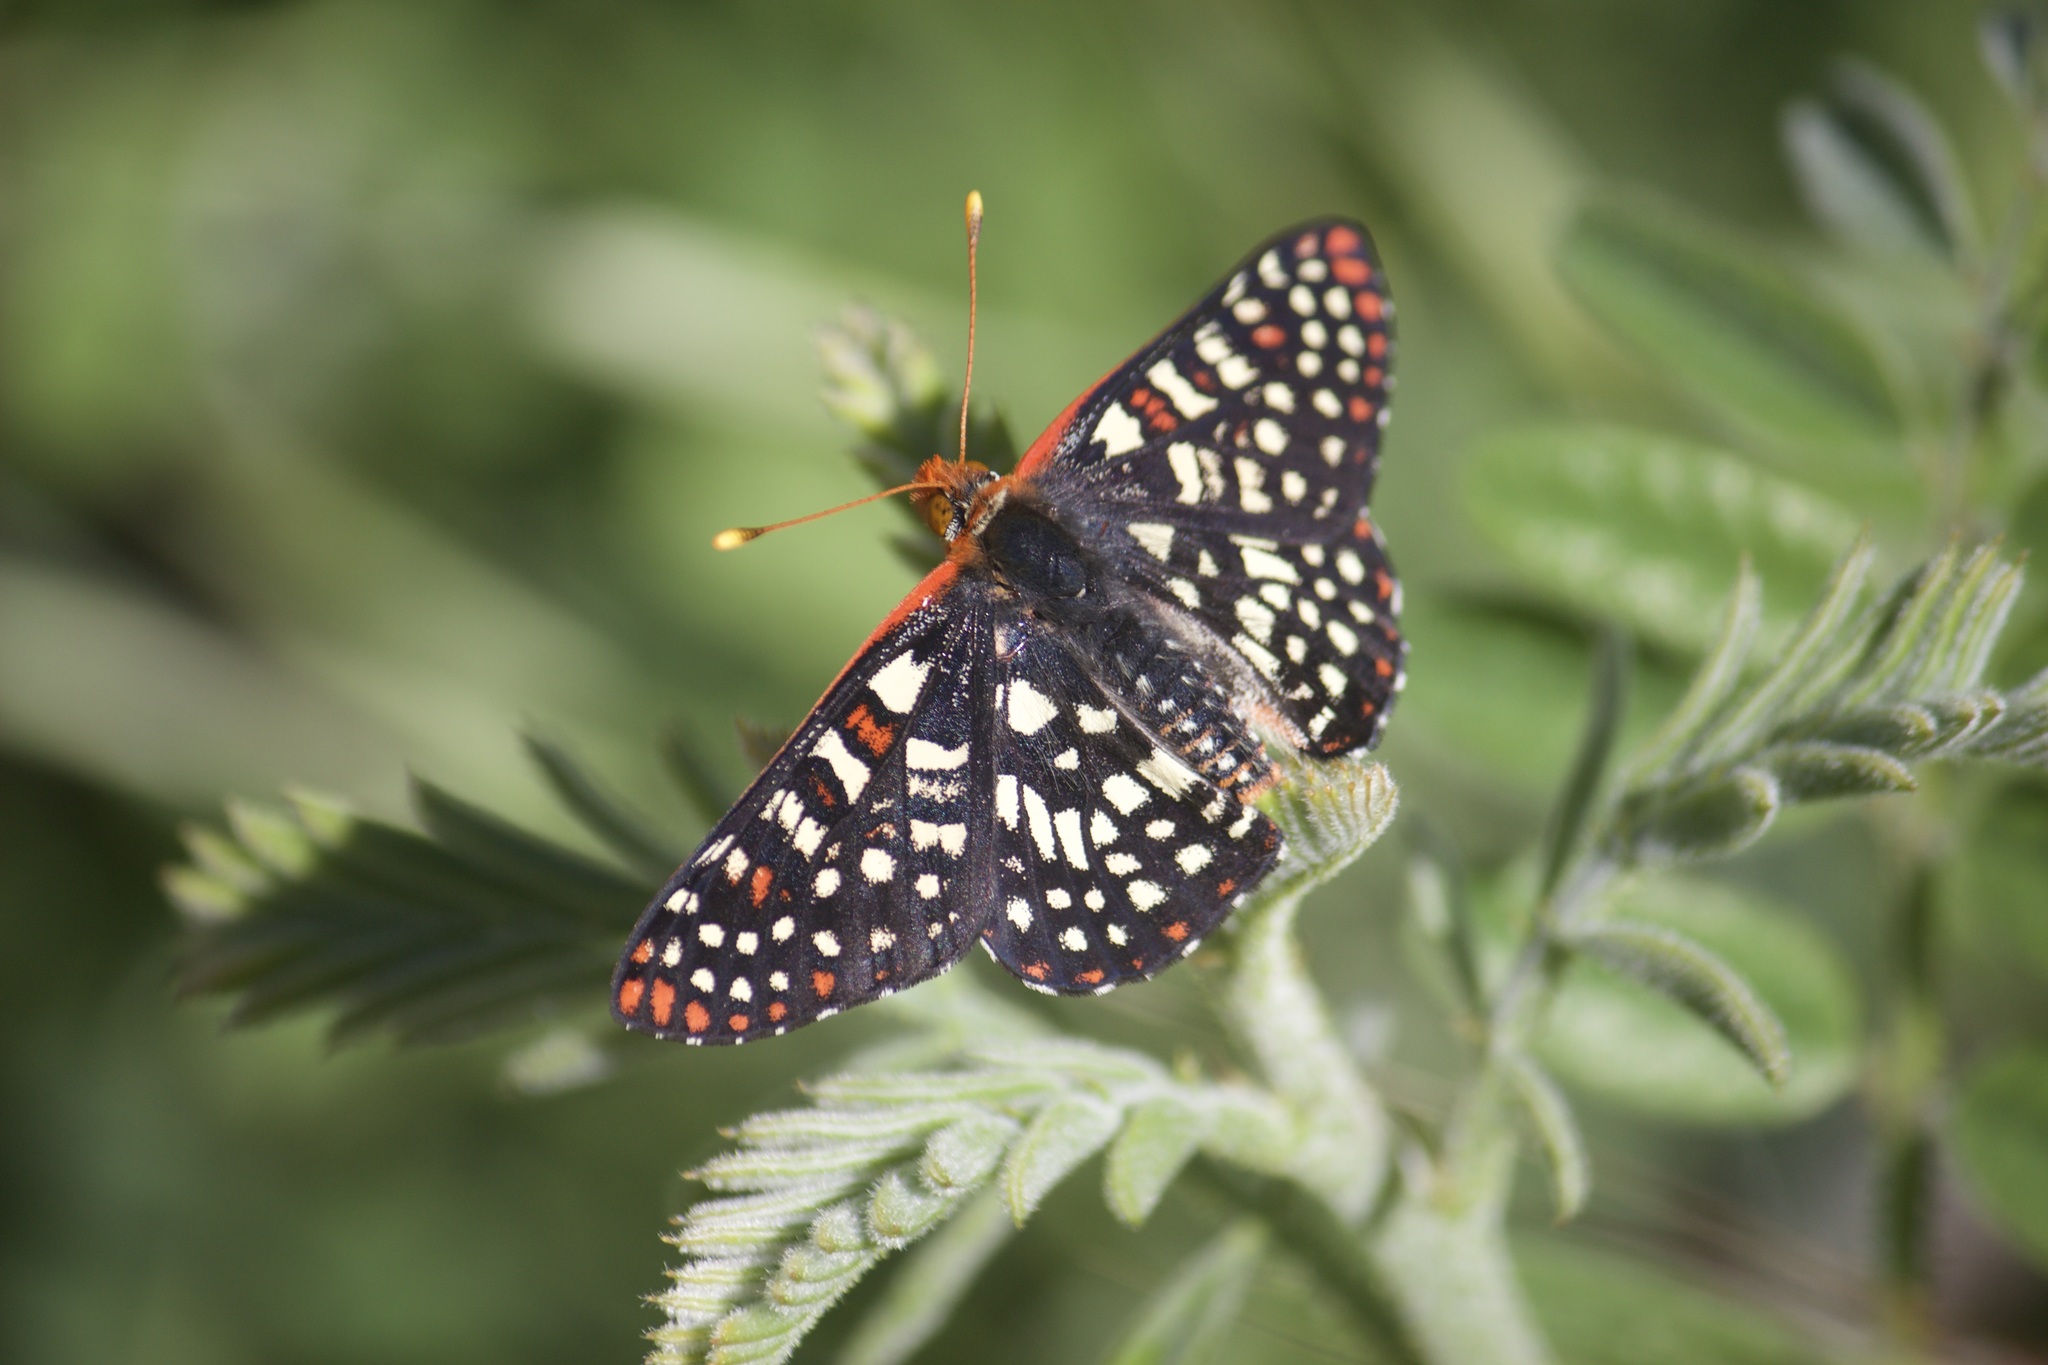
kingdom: Animalia
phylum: Arthropoda
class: Insecta
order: Lepidoptera
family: Nymphalidae
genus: Occidryas
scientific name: Occidryas chalcedona
